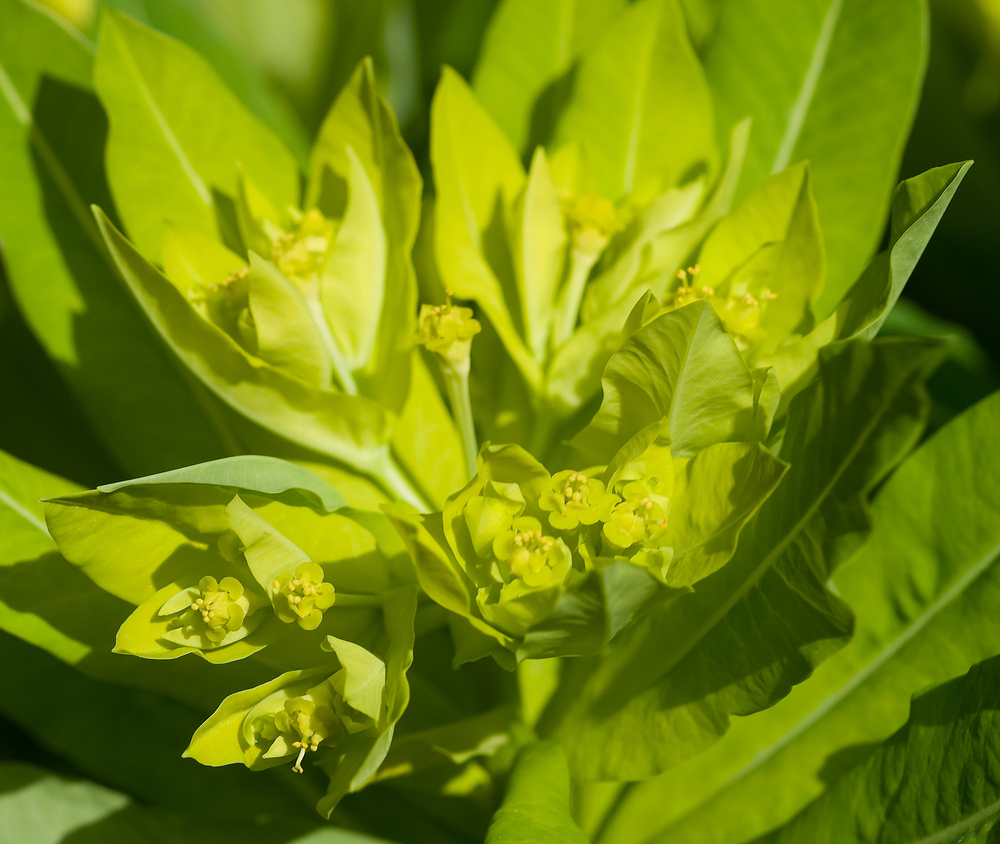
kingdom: Plantae
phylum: Tracheophyta
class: Magnoliopsida
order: Malpighiales
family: Euphorbiaceae
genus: Euphorbia
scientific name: Euphorbia hyberna
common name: Irish spurge
